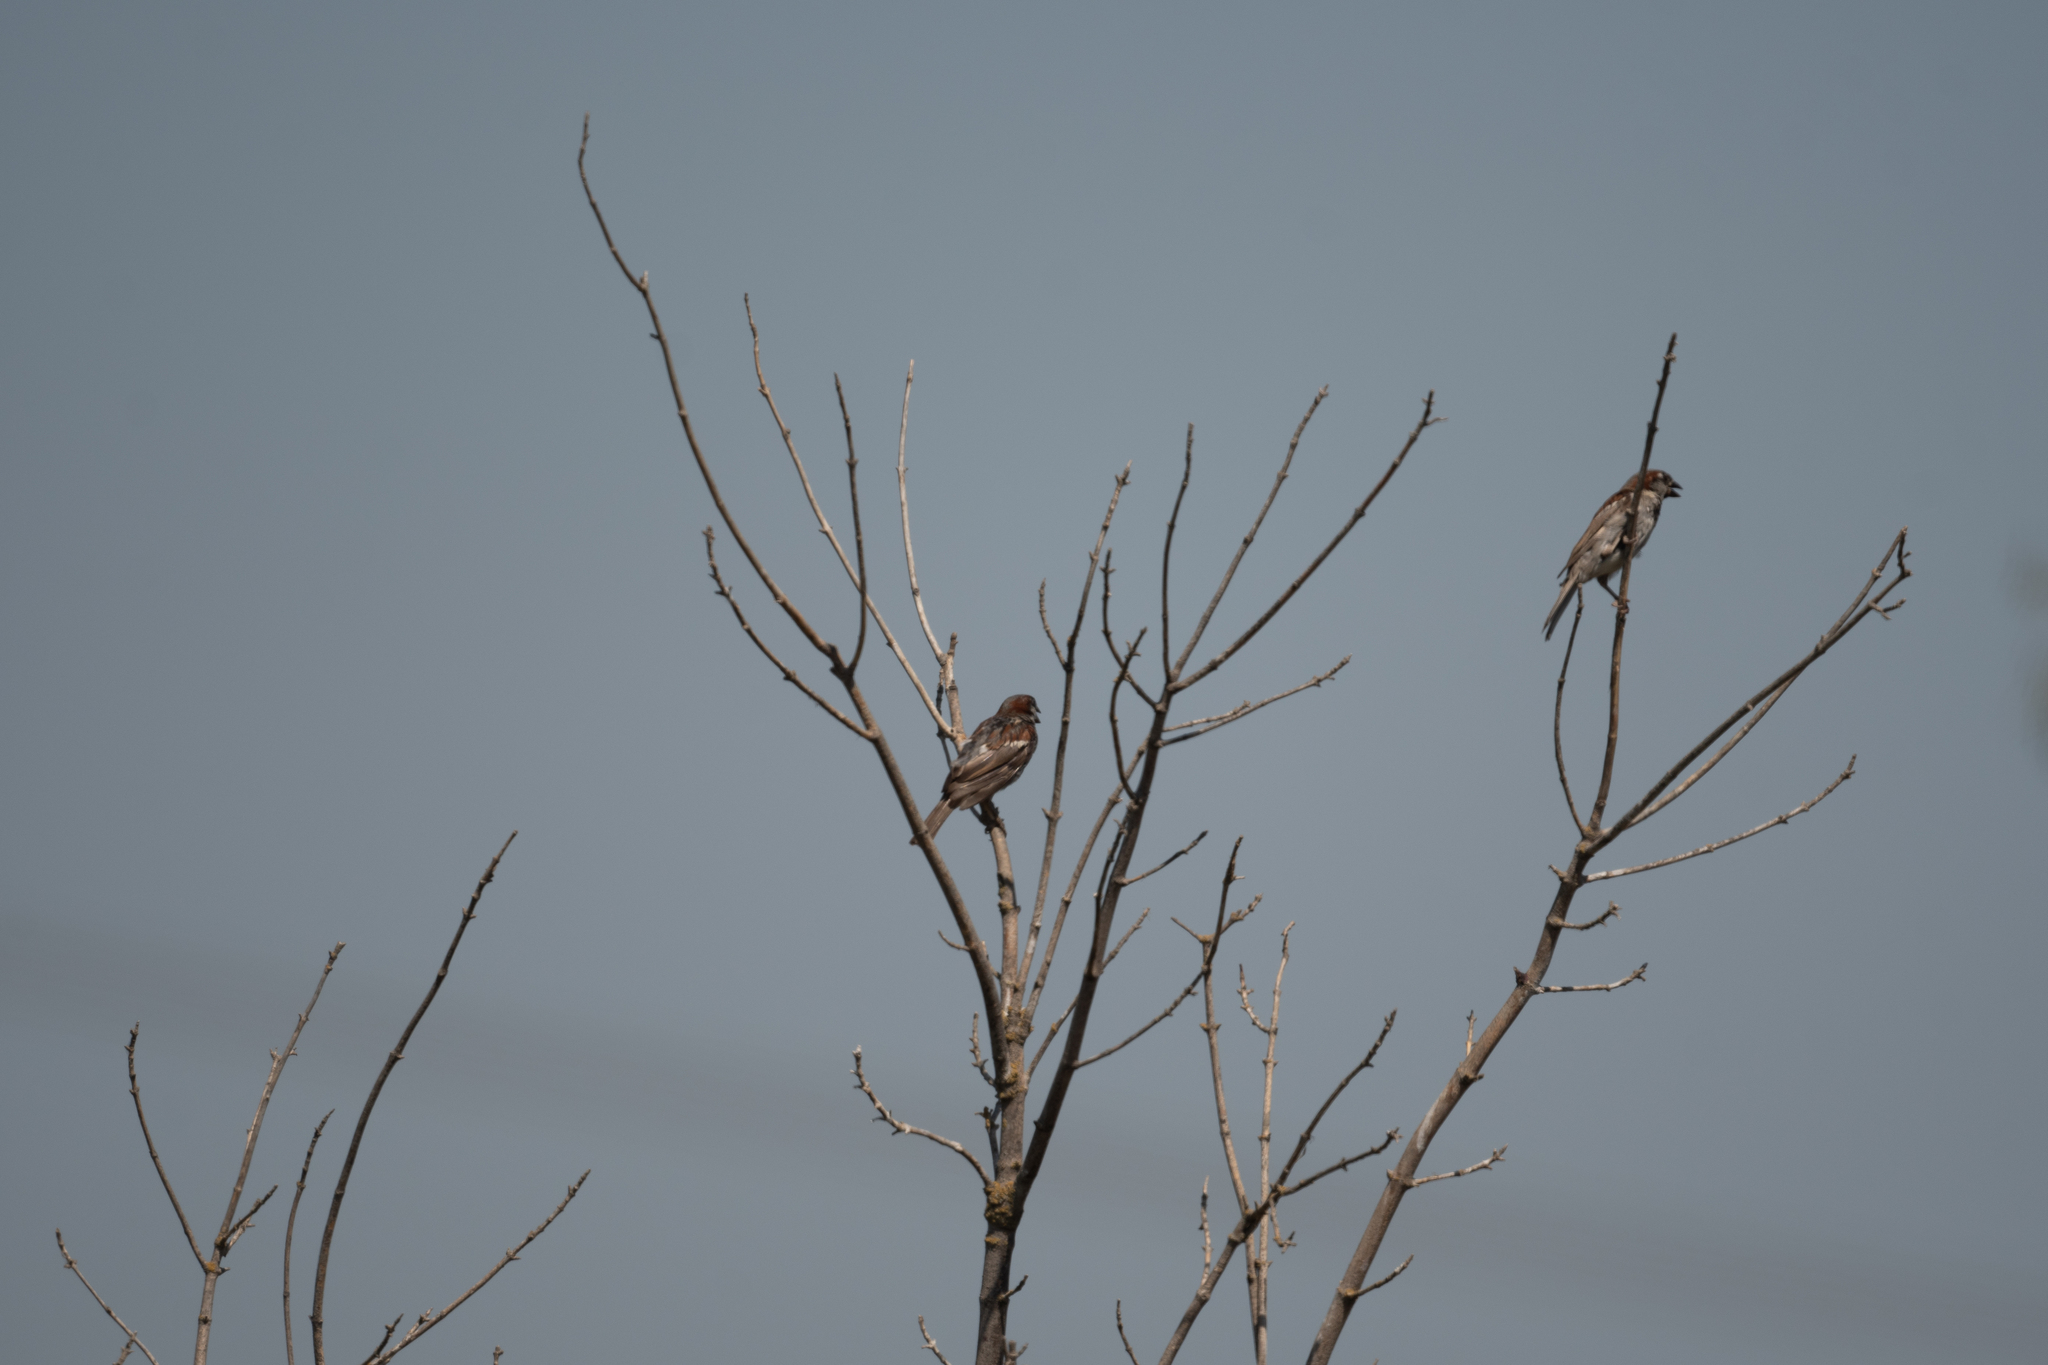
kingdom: Animalia
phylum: Chordata
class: Aves
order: Passeriformes
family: Passeridae
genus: Passer
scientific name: Passer domesticus
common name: House sparrow
